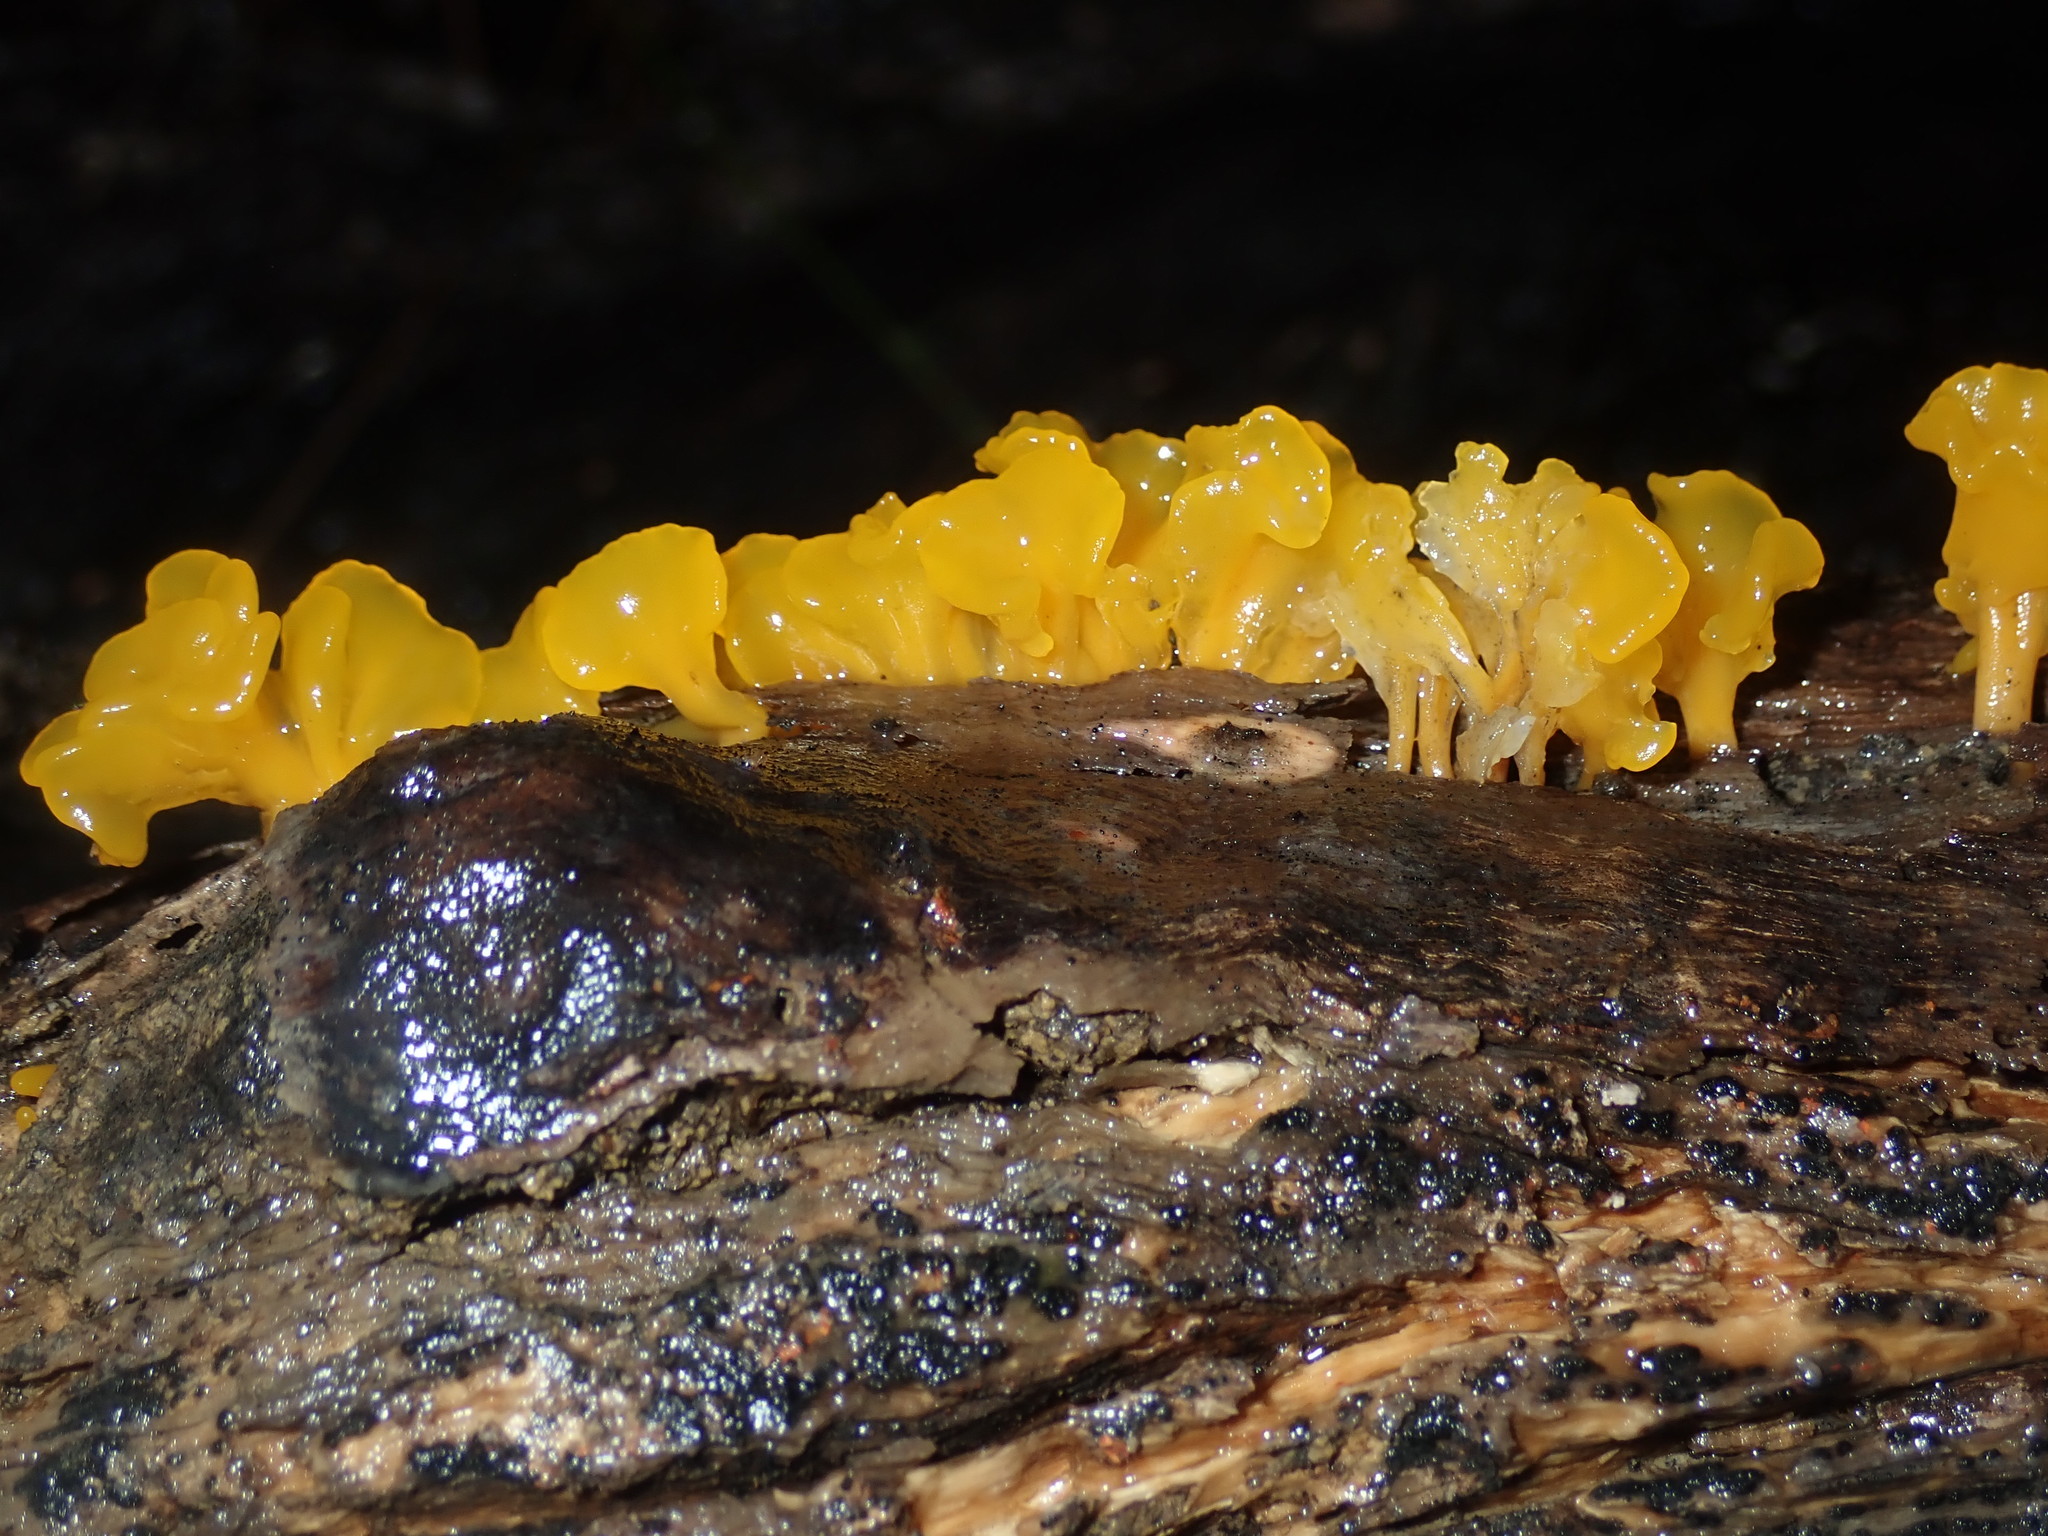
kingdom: Fungi
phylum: Basidiomycota
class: Dacrymycetes
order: Dacrymycetales
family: Dacrymycetaceae
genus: Dacrymyces
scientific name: Dacrymyces spathularius
